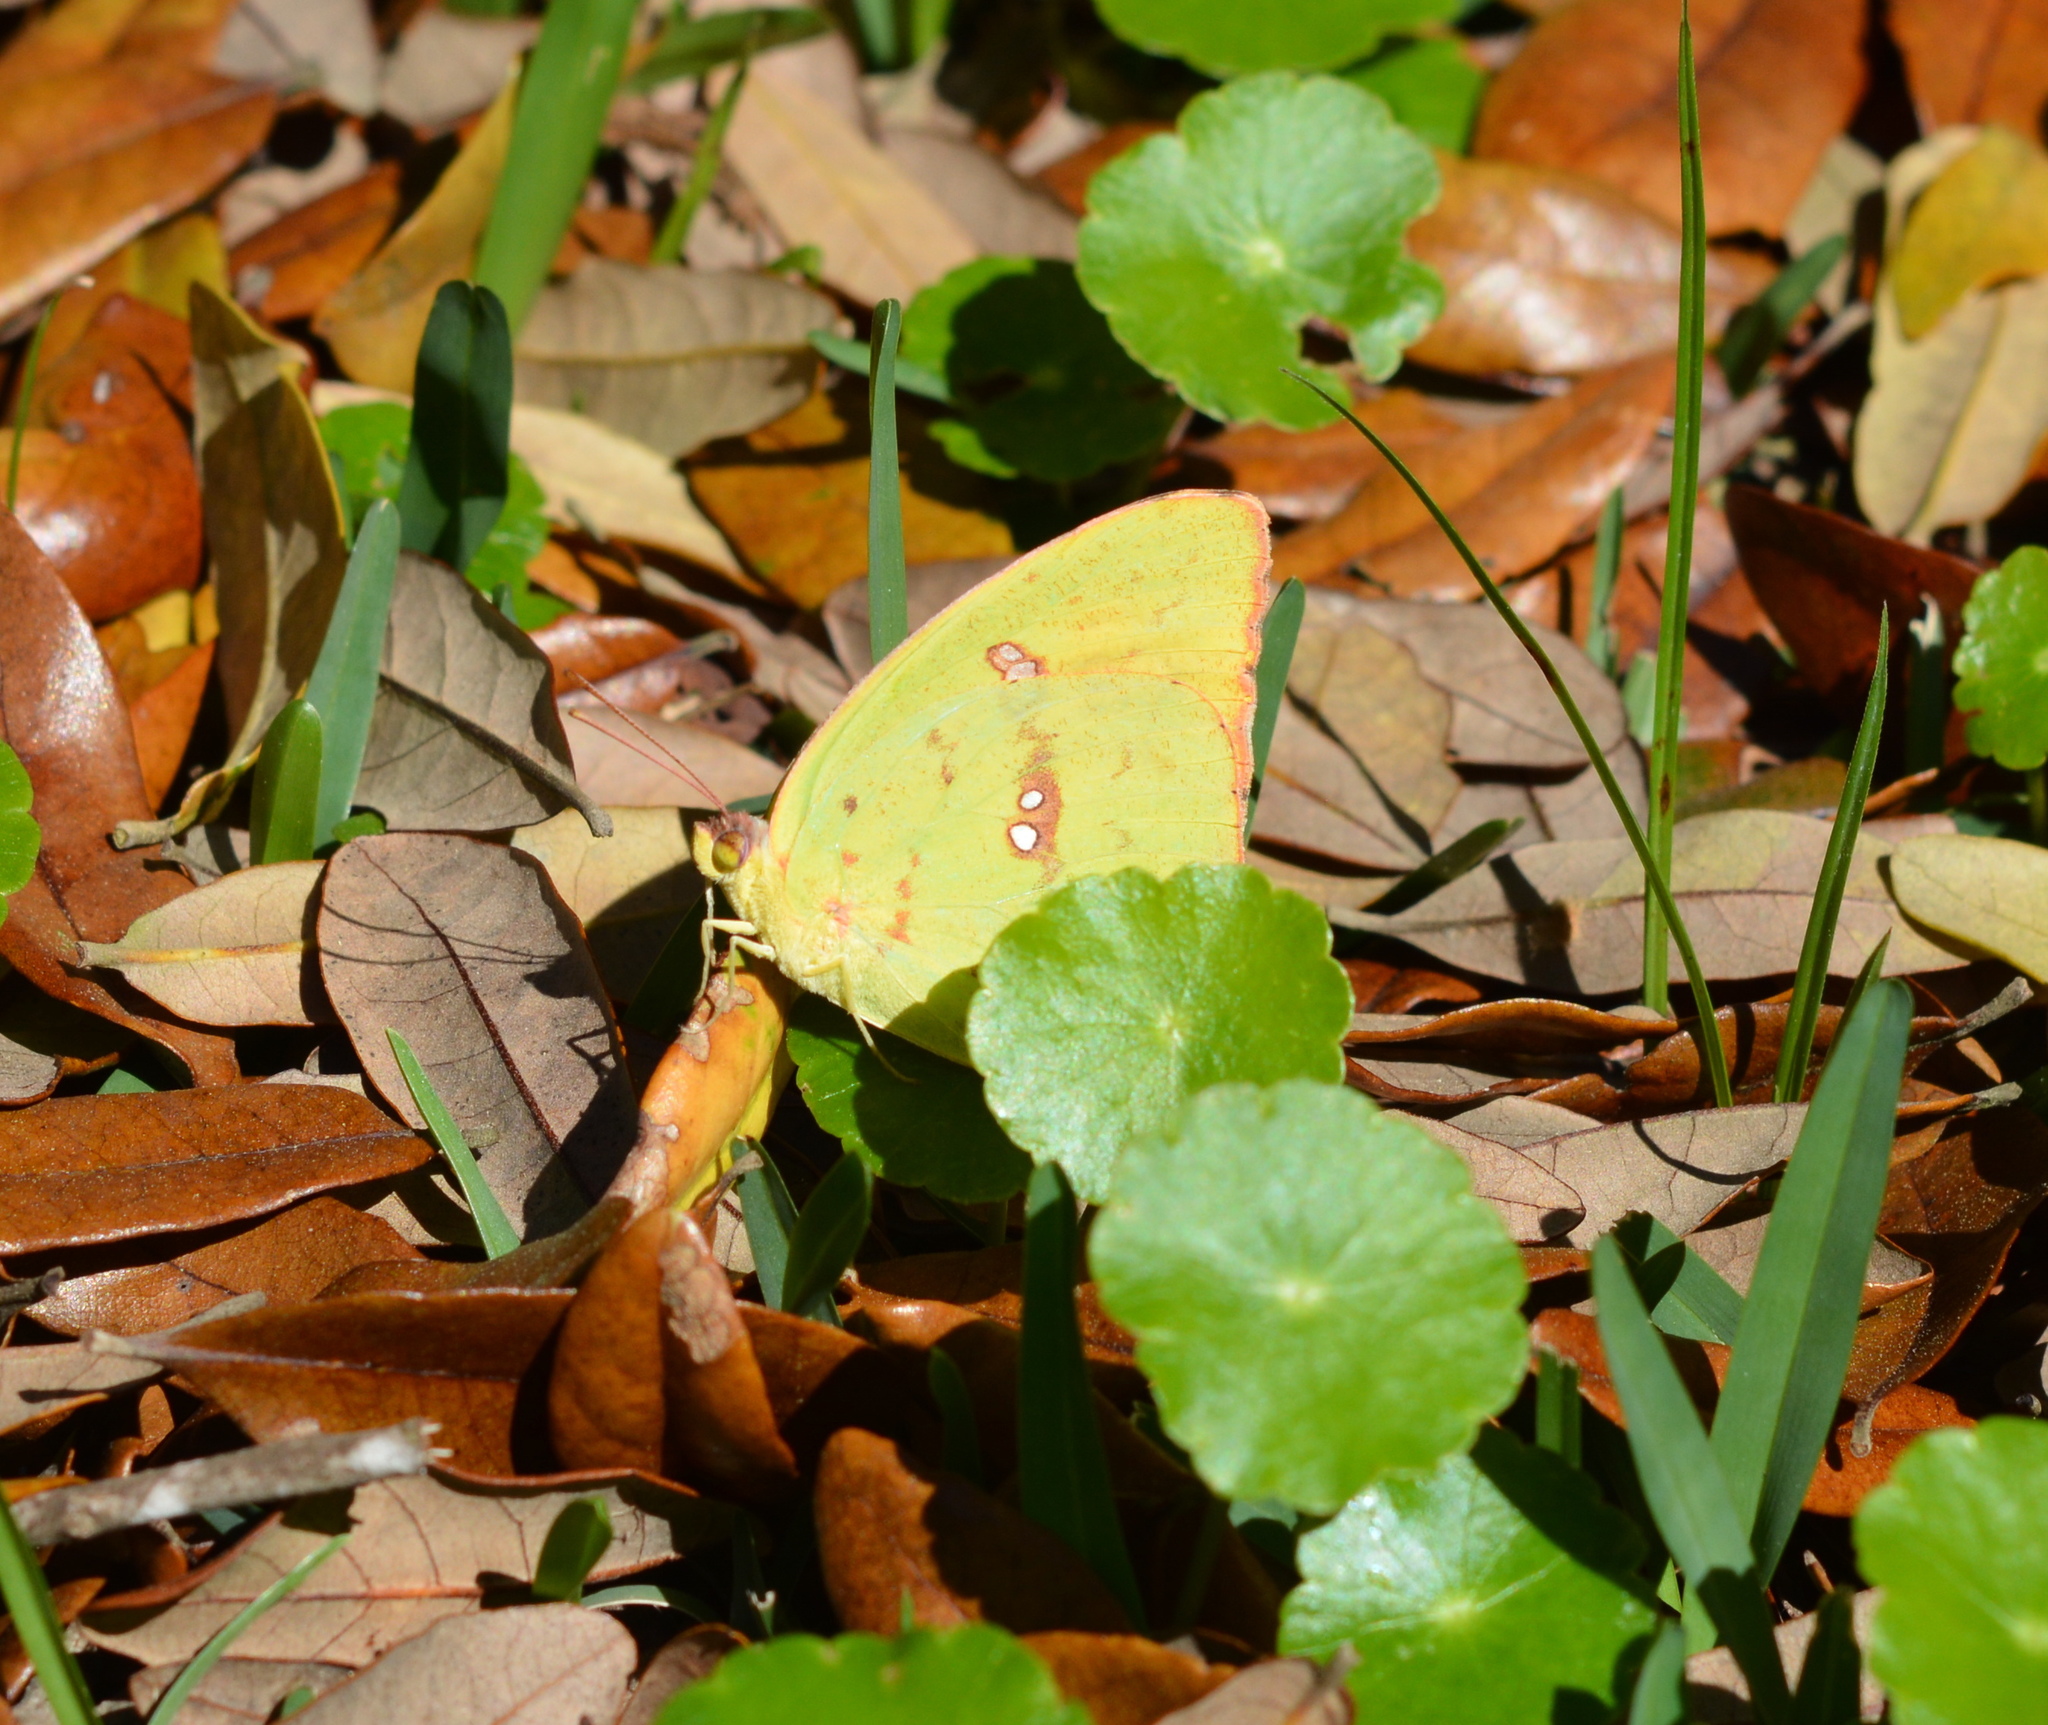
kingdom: Animalia
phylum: Arthropoda
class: Insecta
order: Lepidoptera
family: Pieridae
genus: Phoebis
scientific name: Phoebis sennae
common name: Cloudless sulphur
